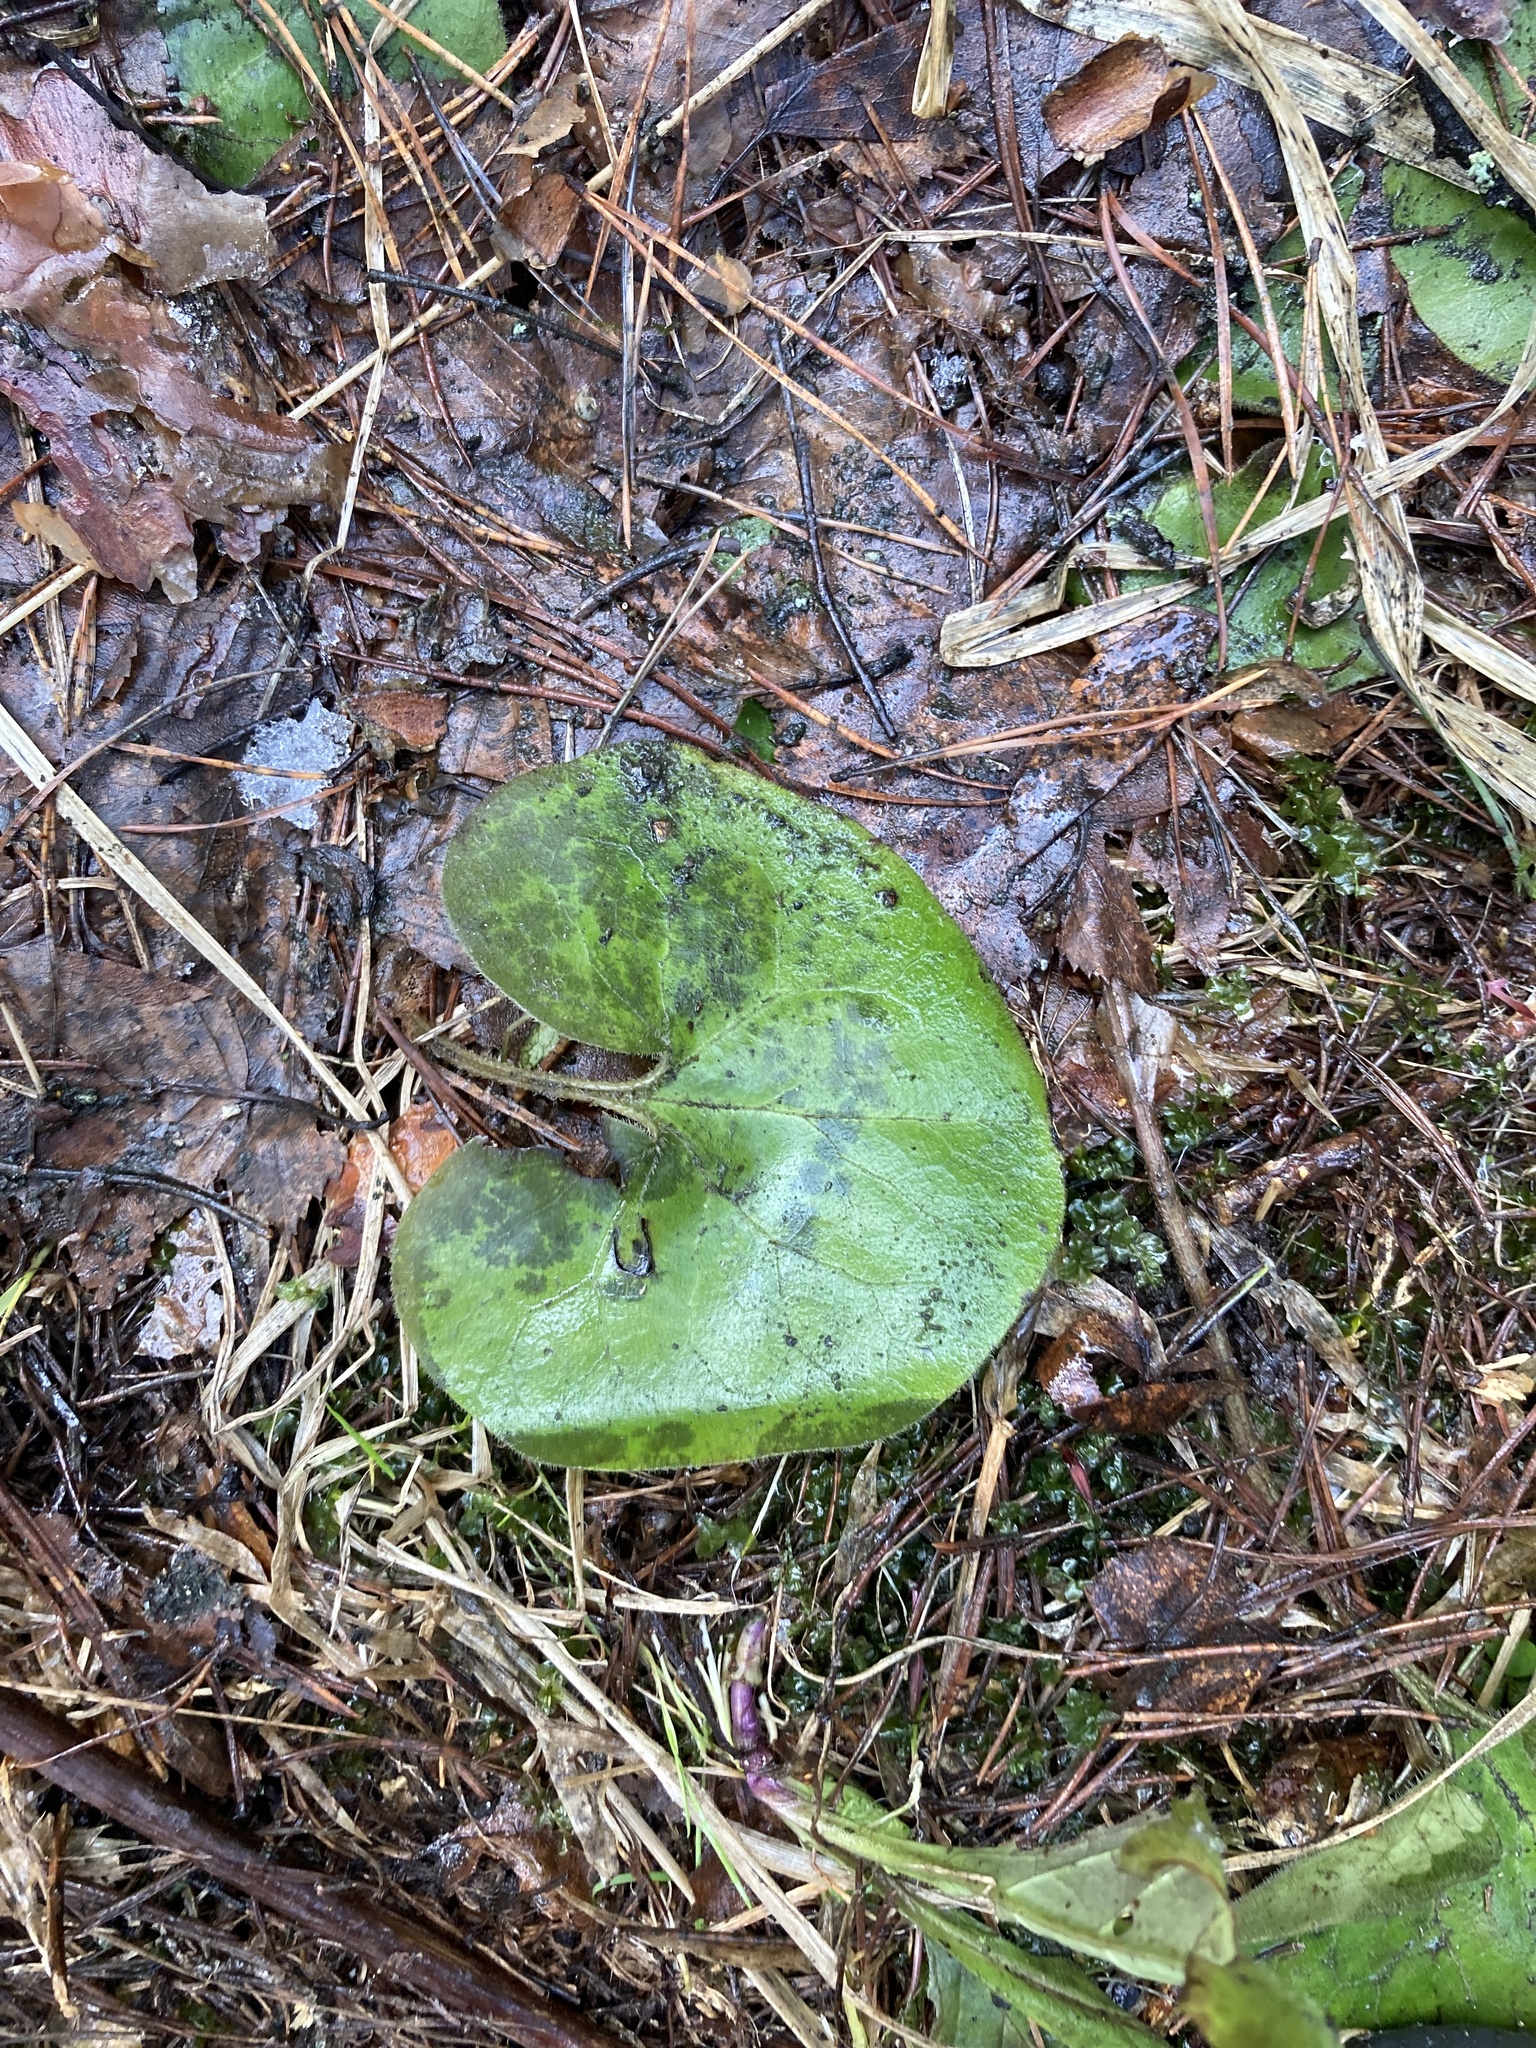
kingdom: Plantae
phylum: Tracheophyta
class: Magnoliopsida
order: Piperales
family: Aristolochiaceae
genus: Asarum
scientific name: Asarum europaeum
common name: Asarabacca
